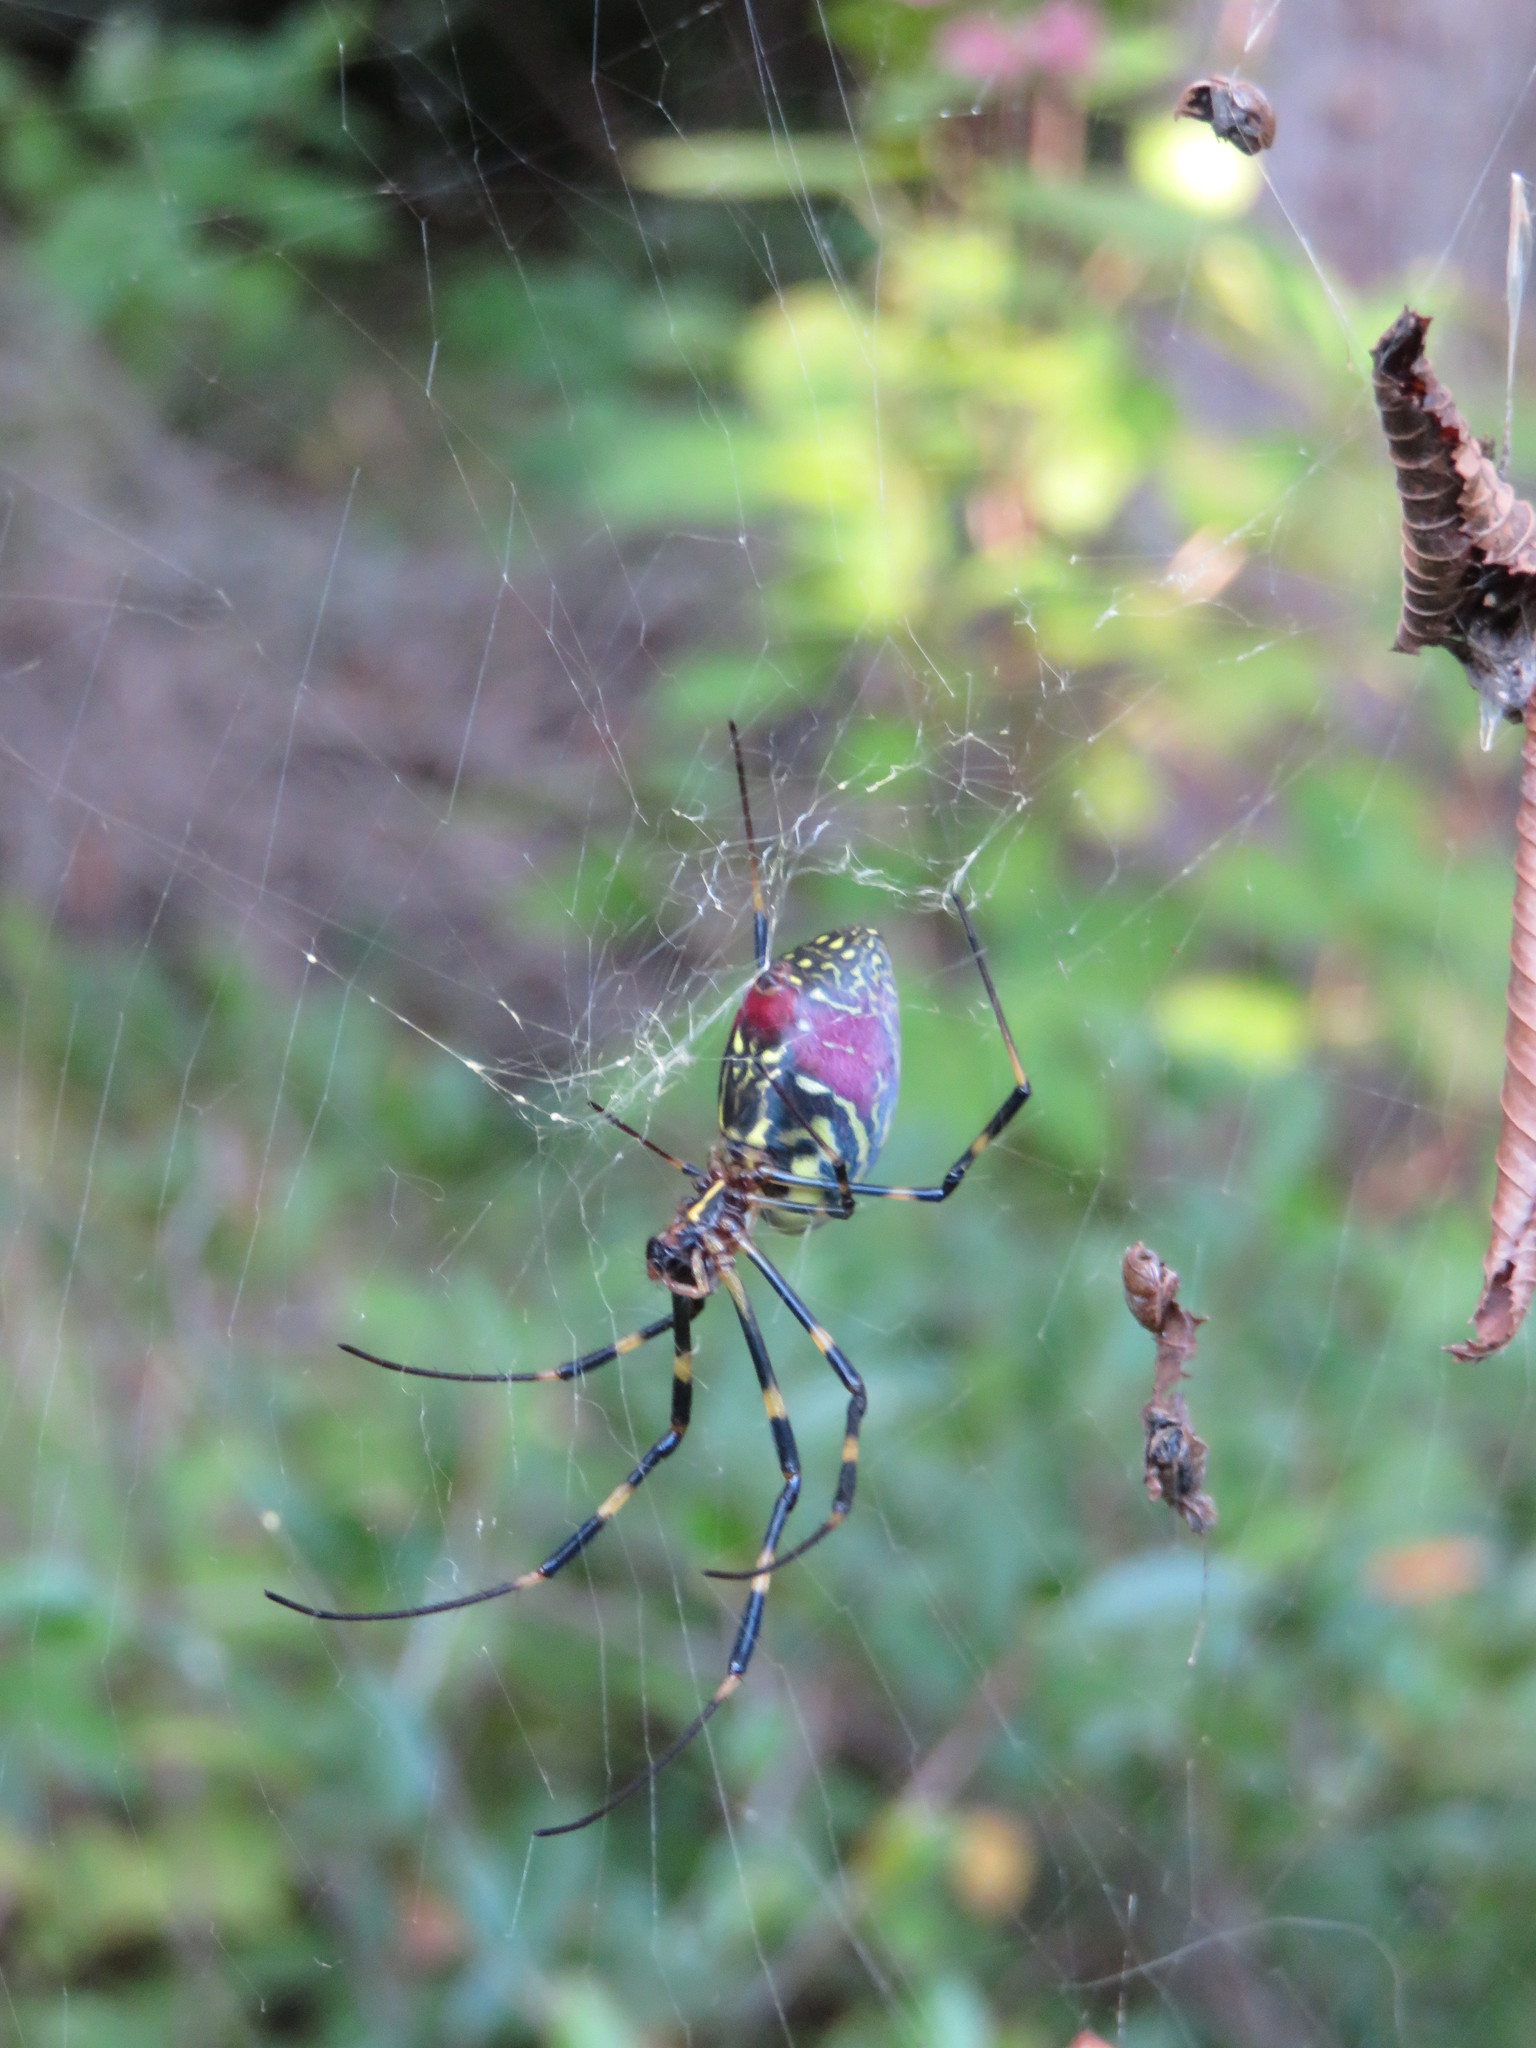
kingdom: Animalia
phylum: Arthropoda
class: Arachnida
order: Araneae
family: Araneidae
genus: Trichonephila
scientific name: Trichonephila clavata
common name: Jorō spider
